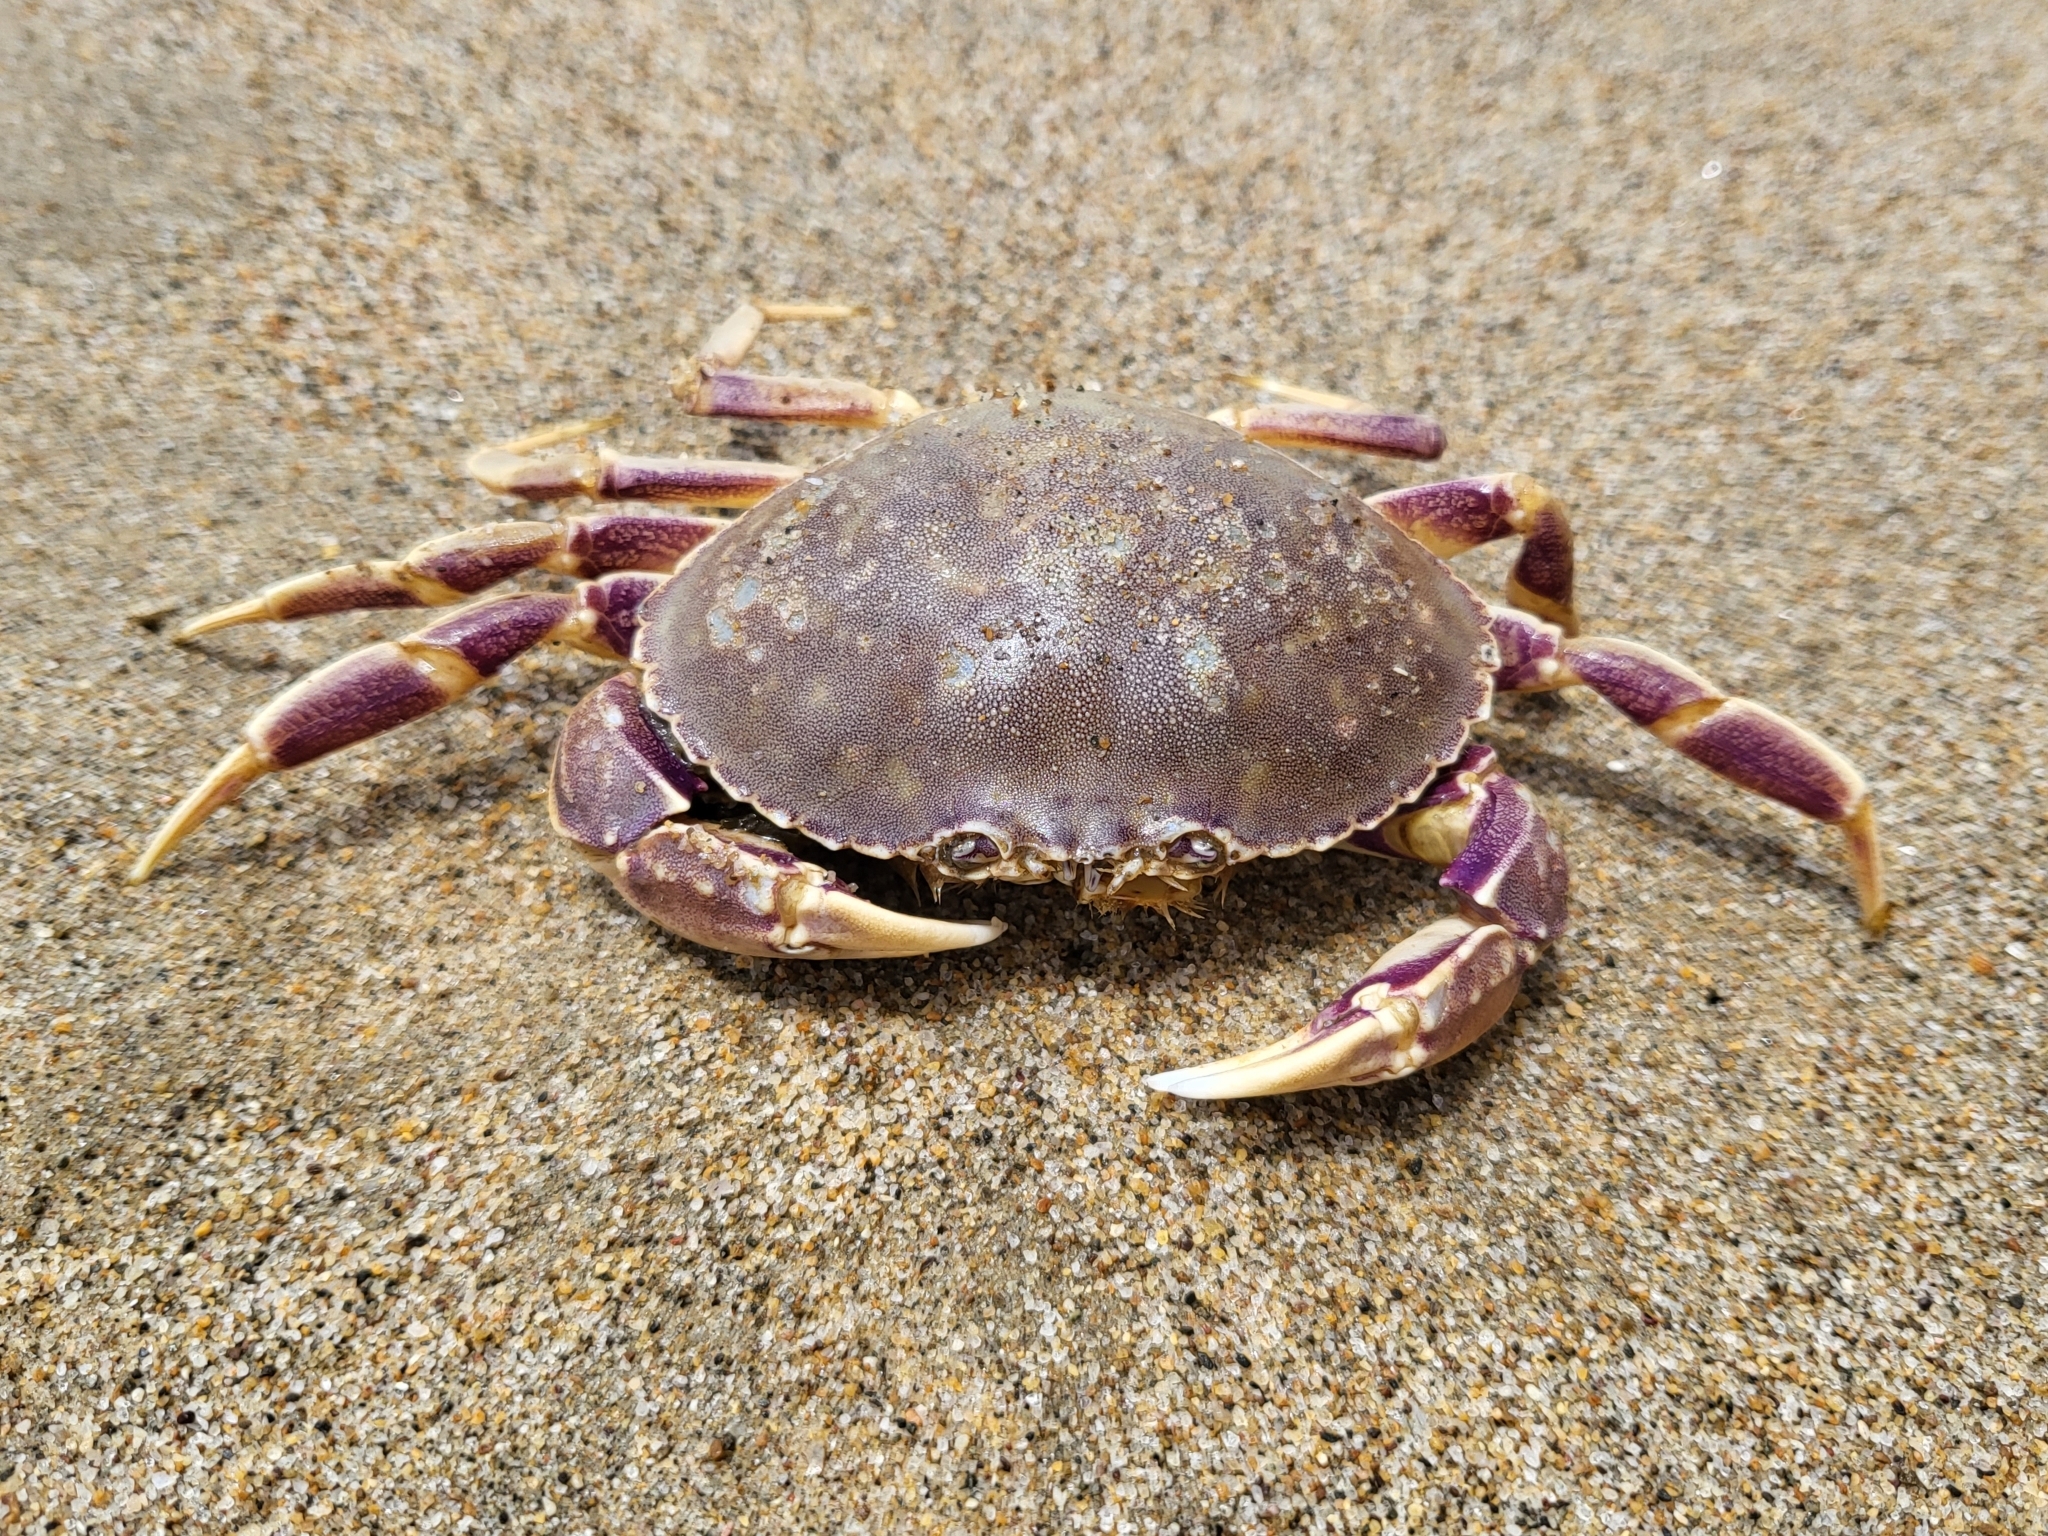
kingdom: Animalia
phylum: Arthropoda
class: Malacostraca
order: Decapoda
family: Cancridae
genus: Metacarcinus
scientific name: Metacarcinus gracilis
